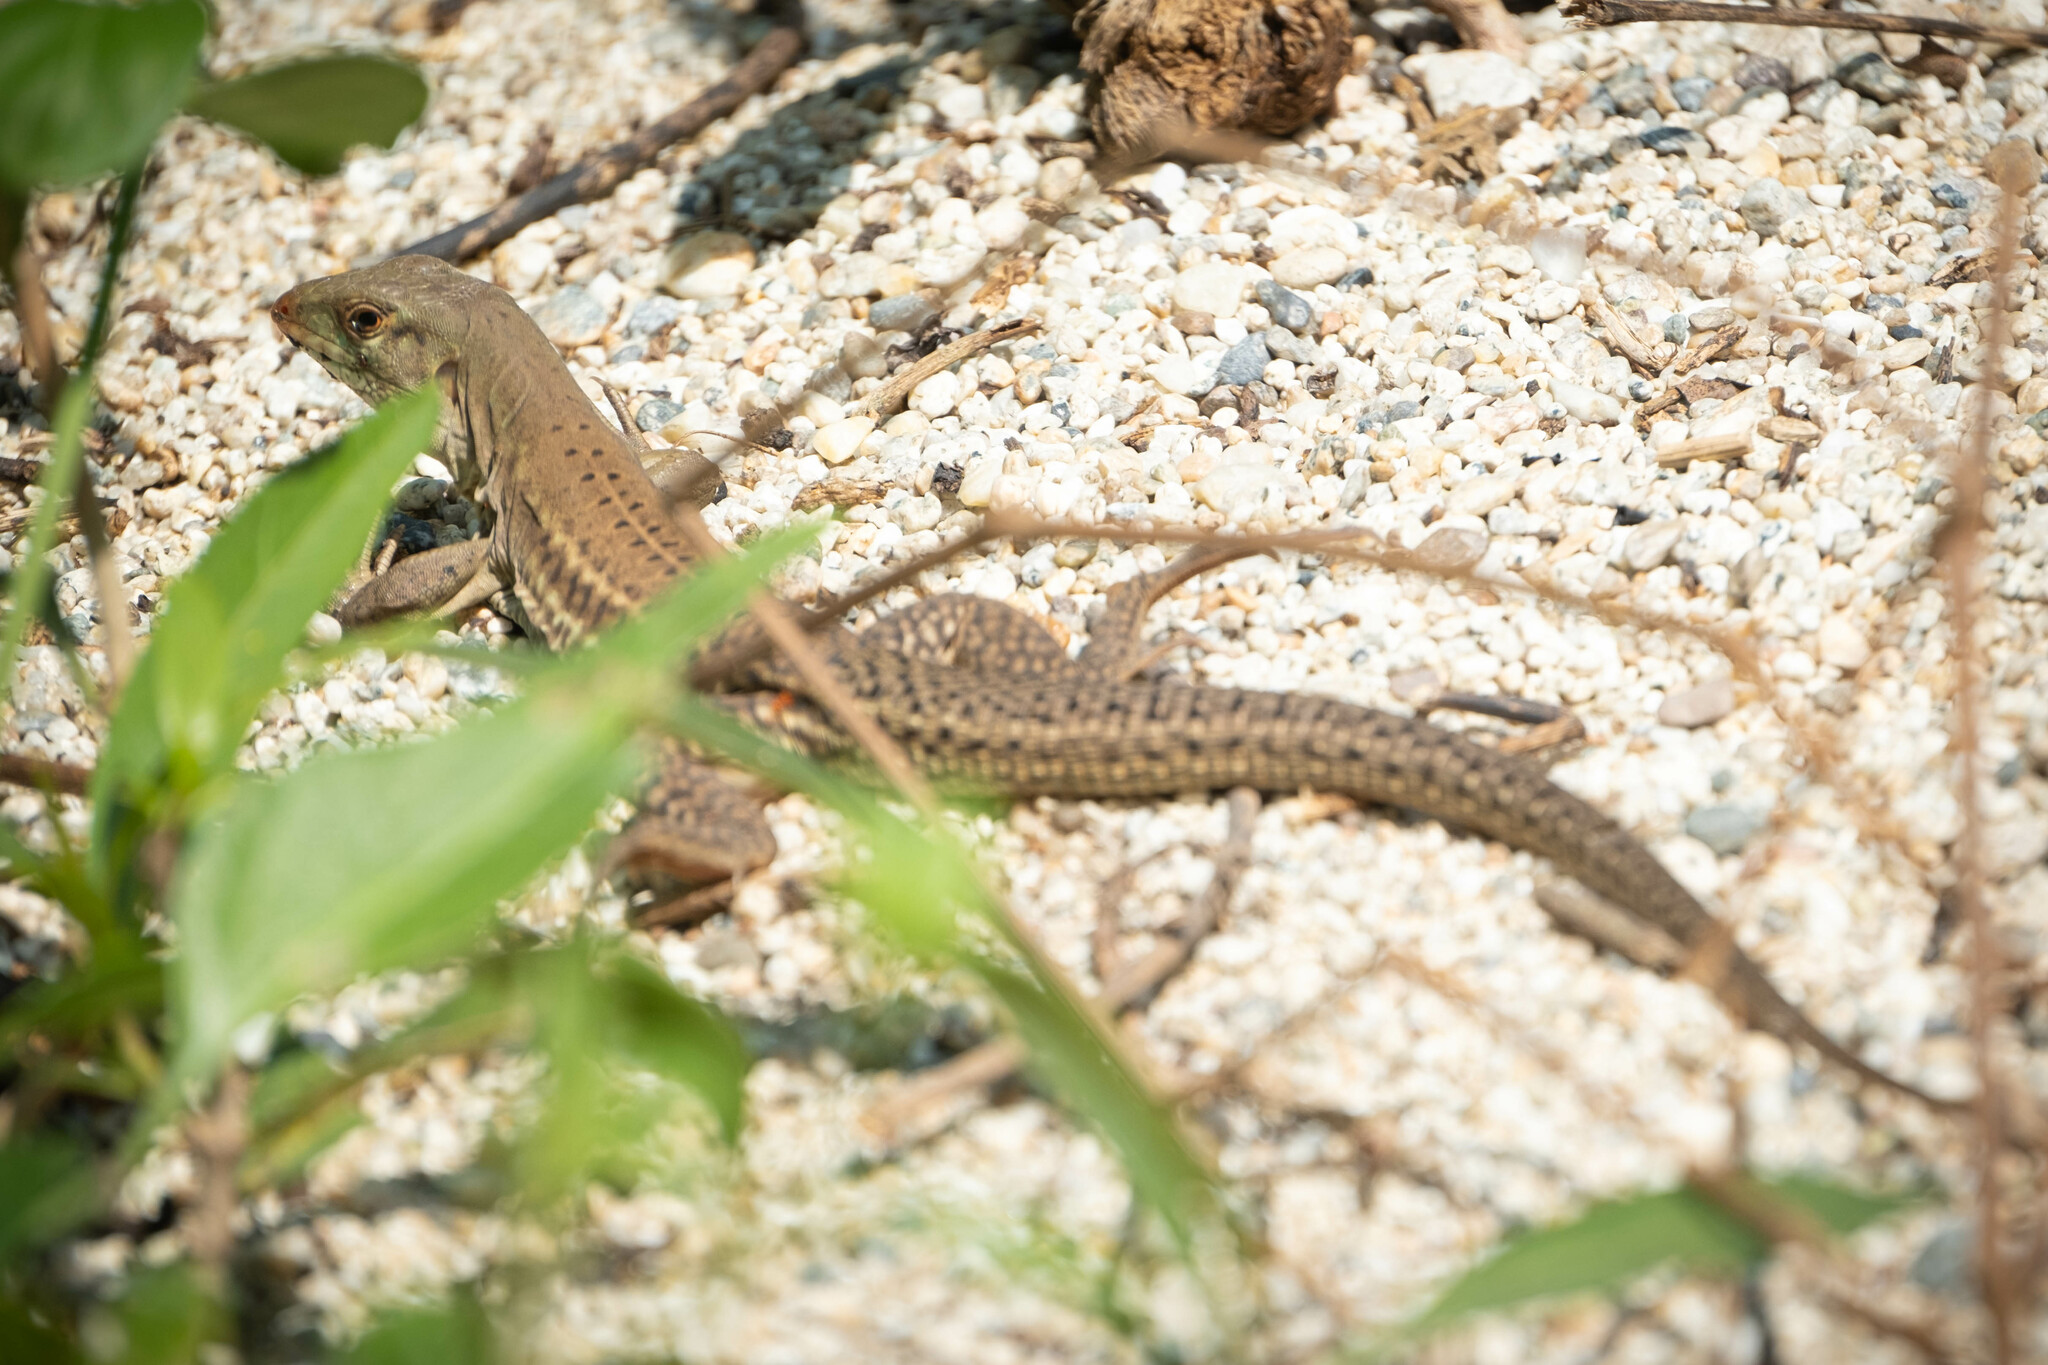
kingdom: Animalia
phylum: Chordata
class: Squamata
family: Teiidae
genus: Ameiva
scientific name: Ameiva bifrontata
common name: Cope's ameiva
